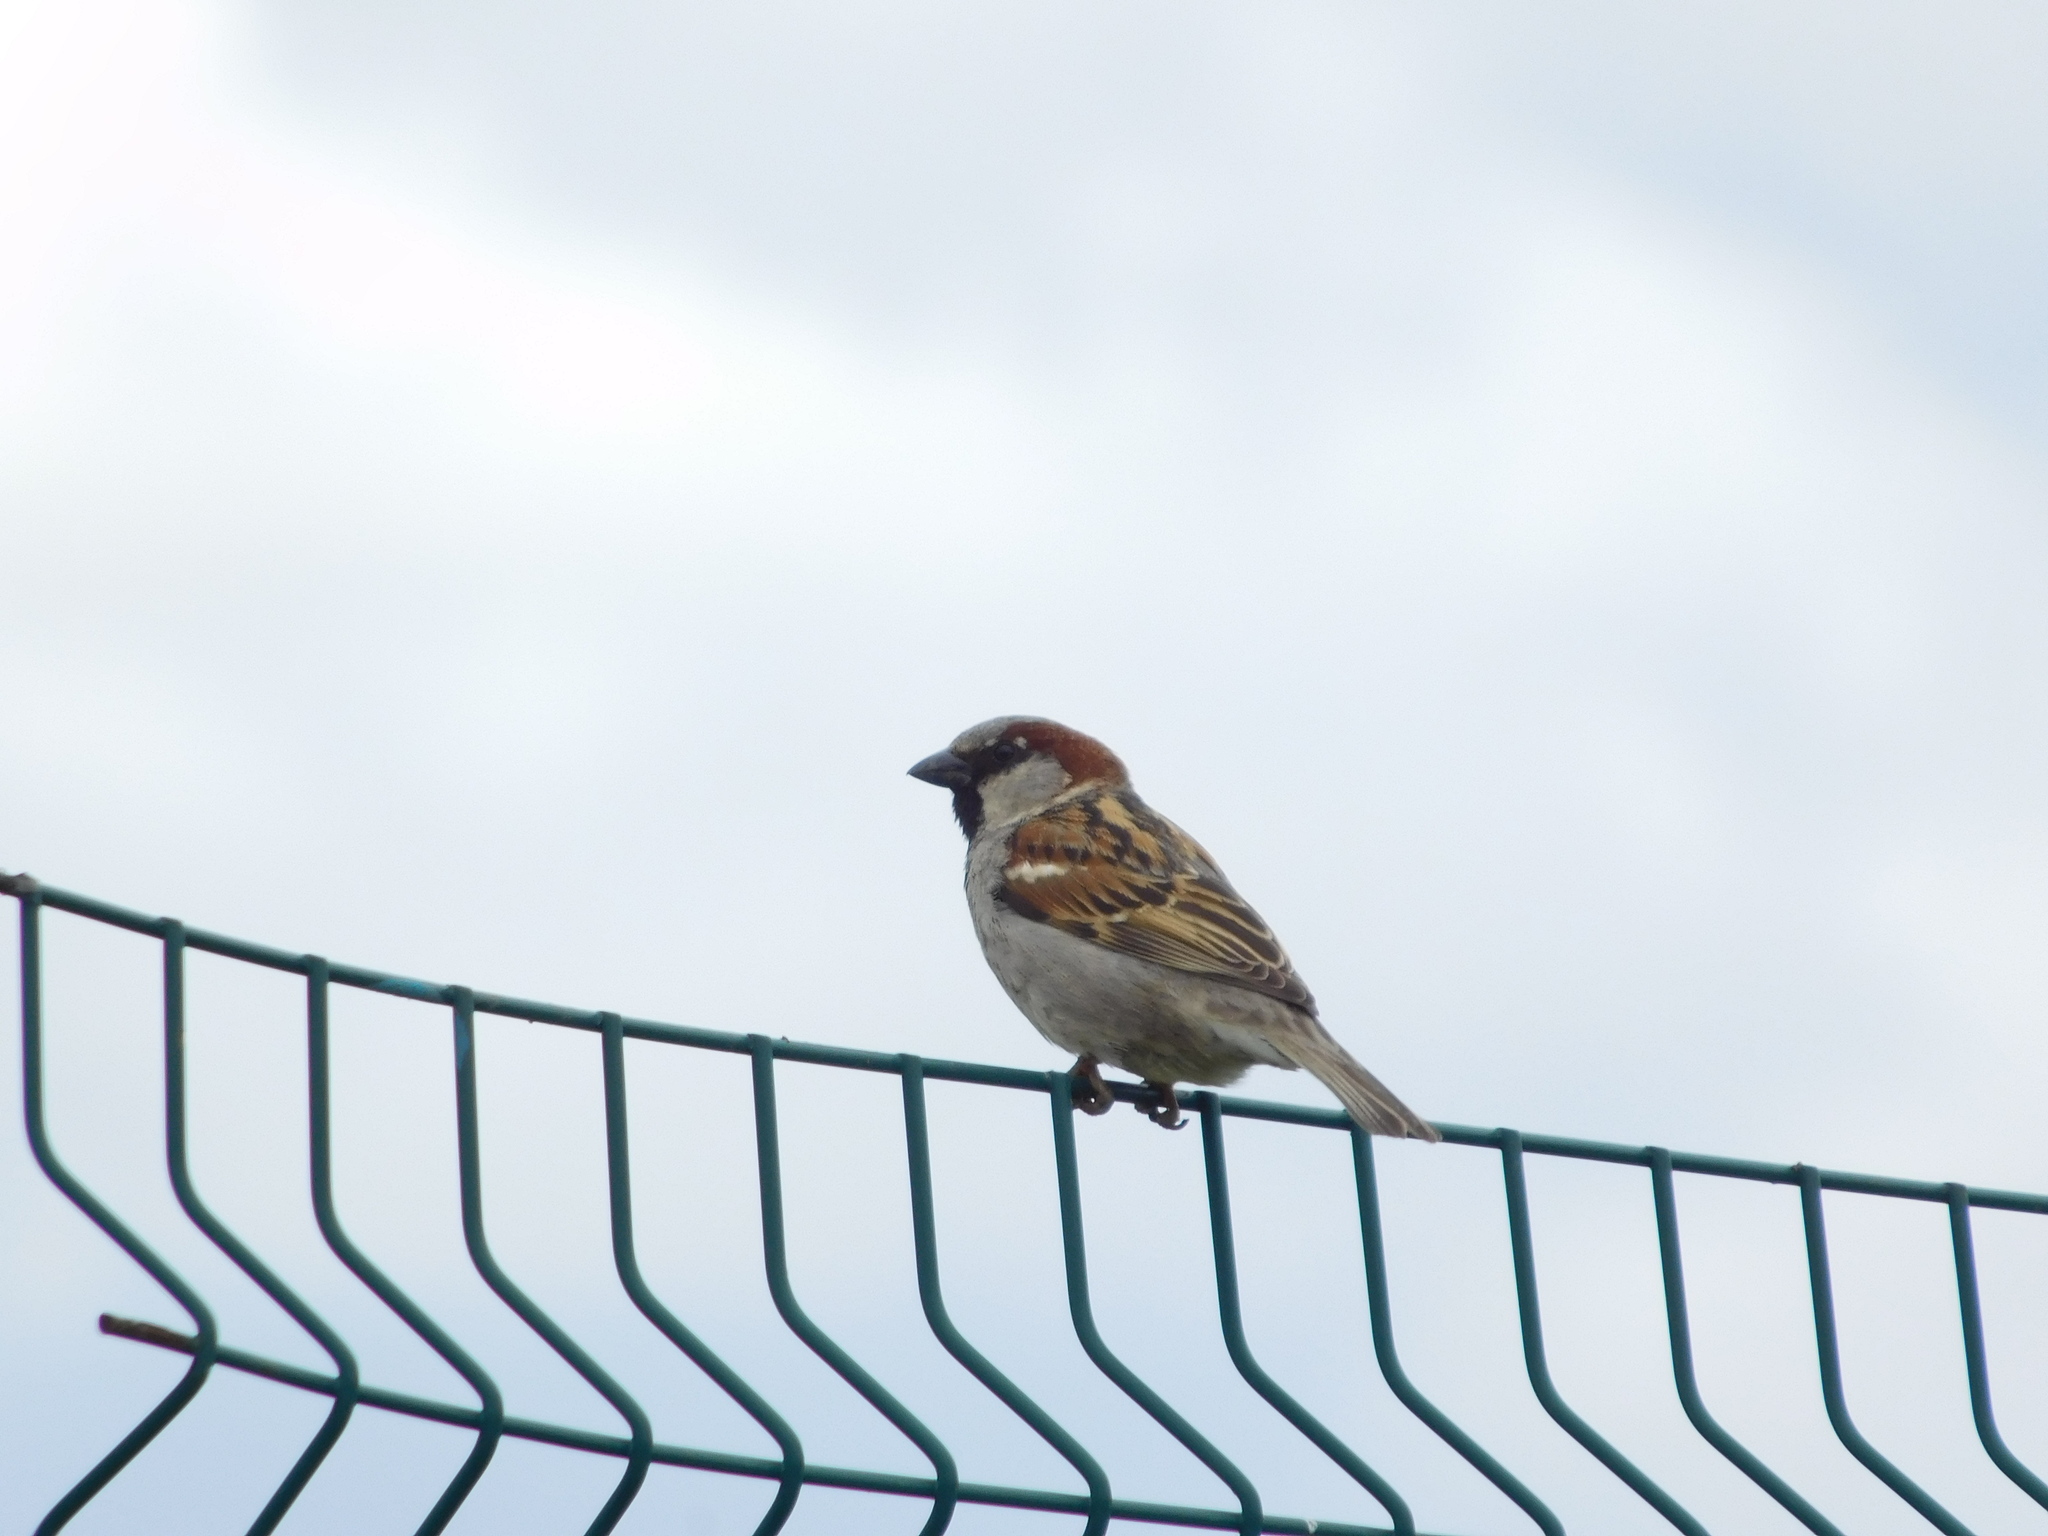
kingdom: Animalia
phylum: Chordata
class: Aves
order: Passeriformes
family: Passeridae
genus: Passer
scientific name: Passer domesticus
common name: House sparrow
